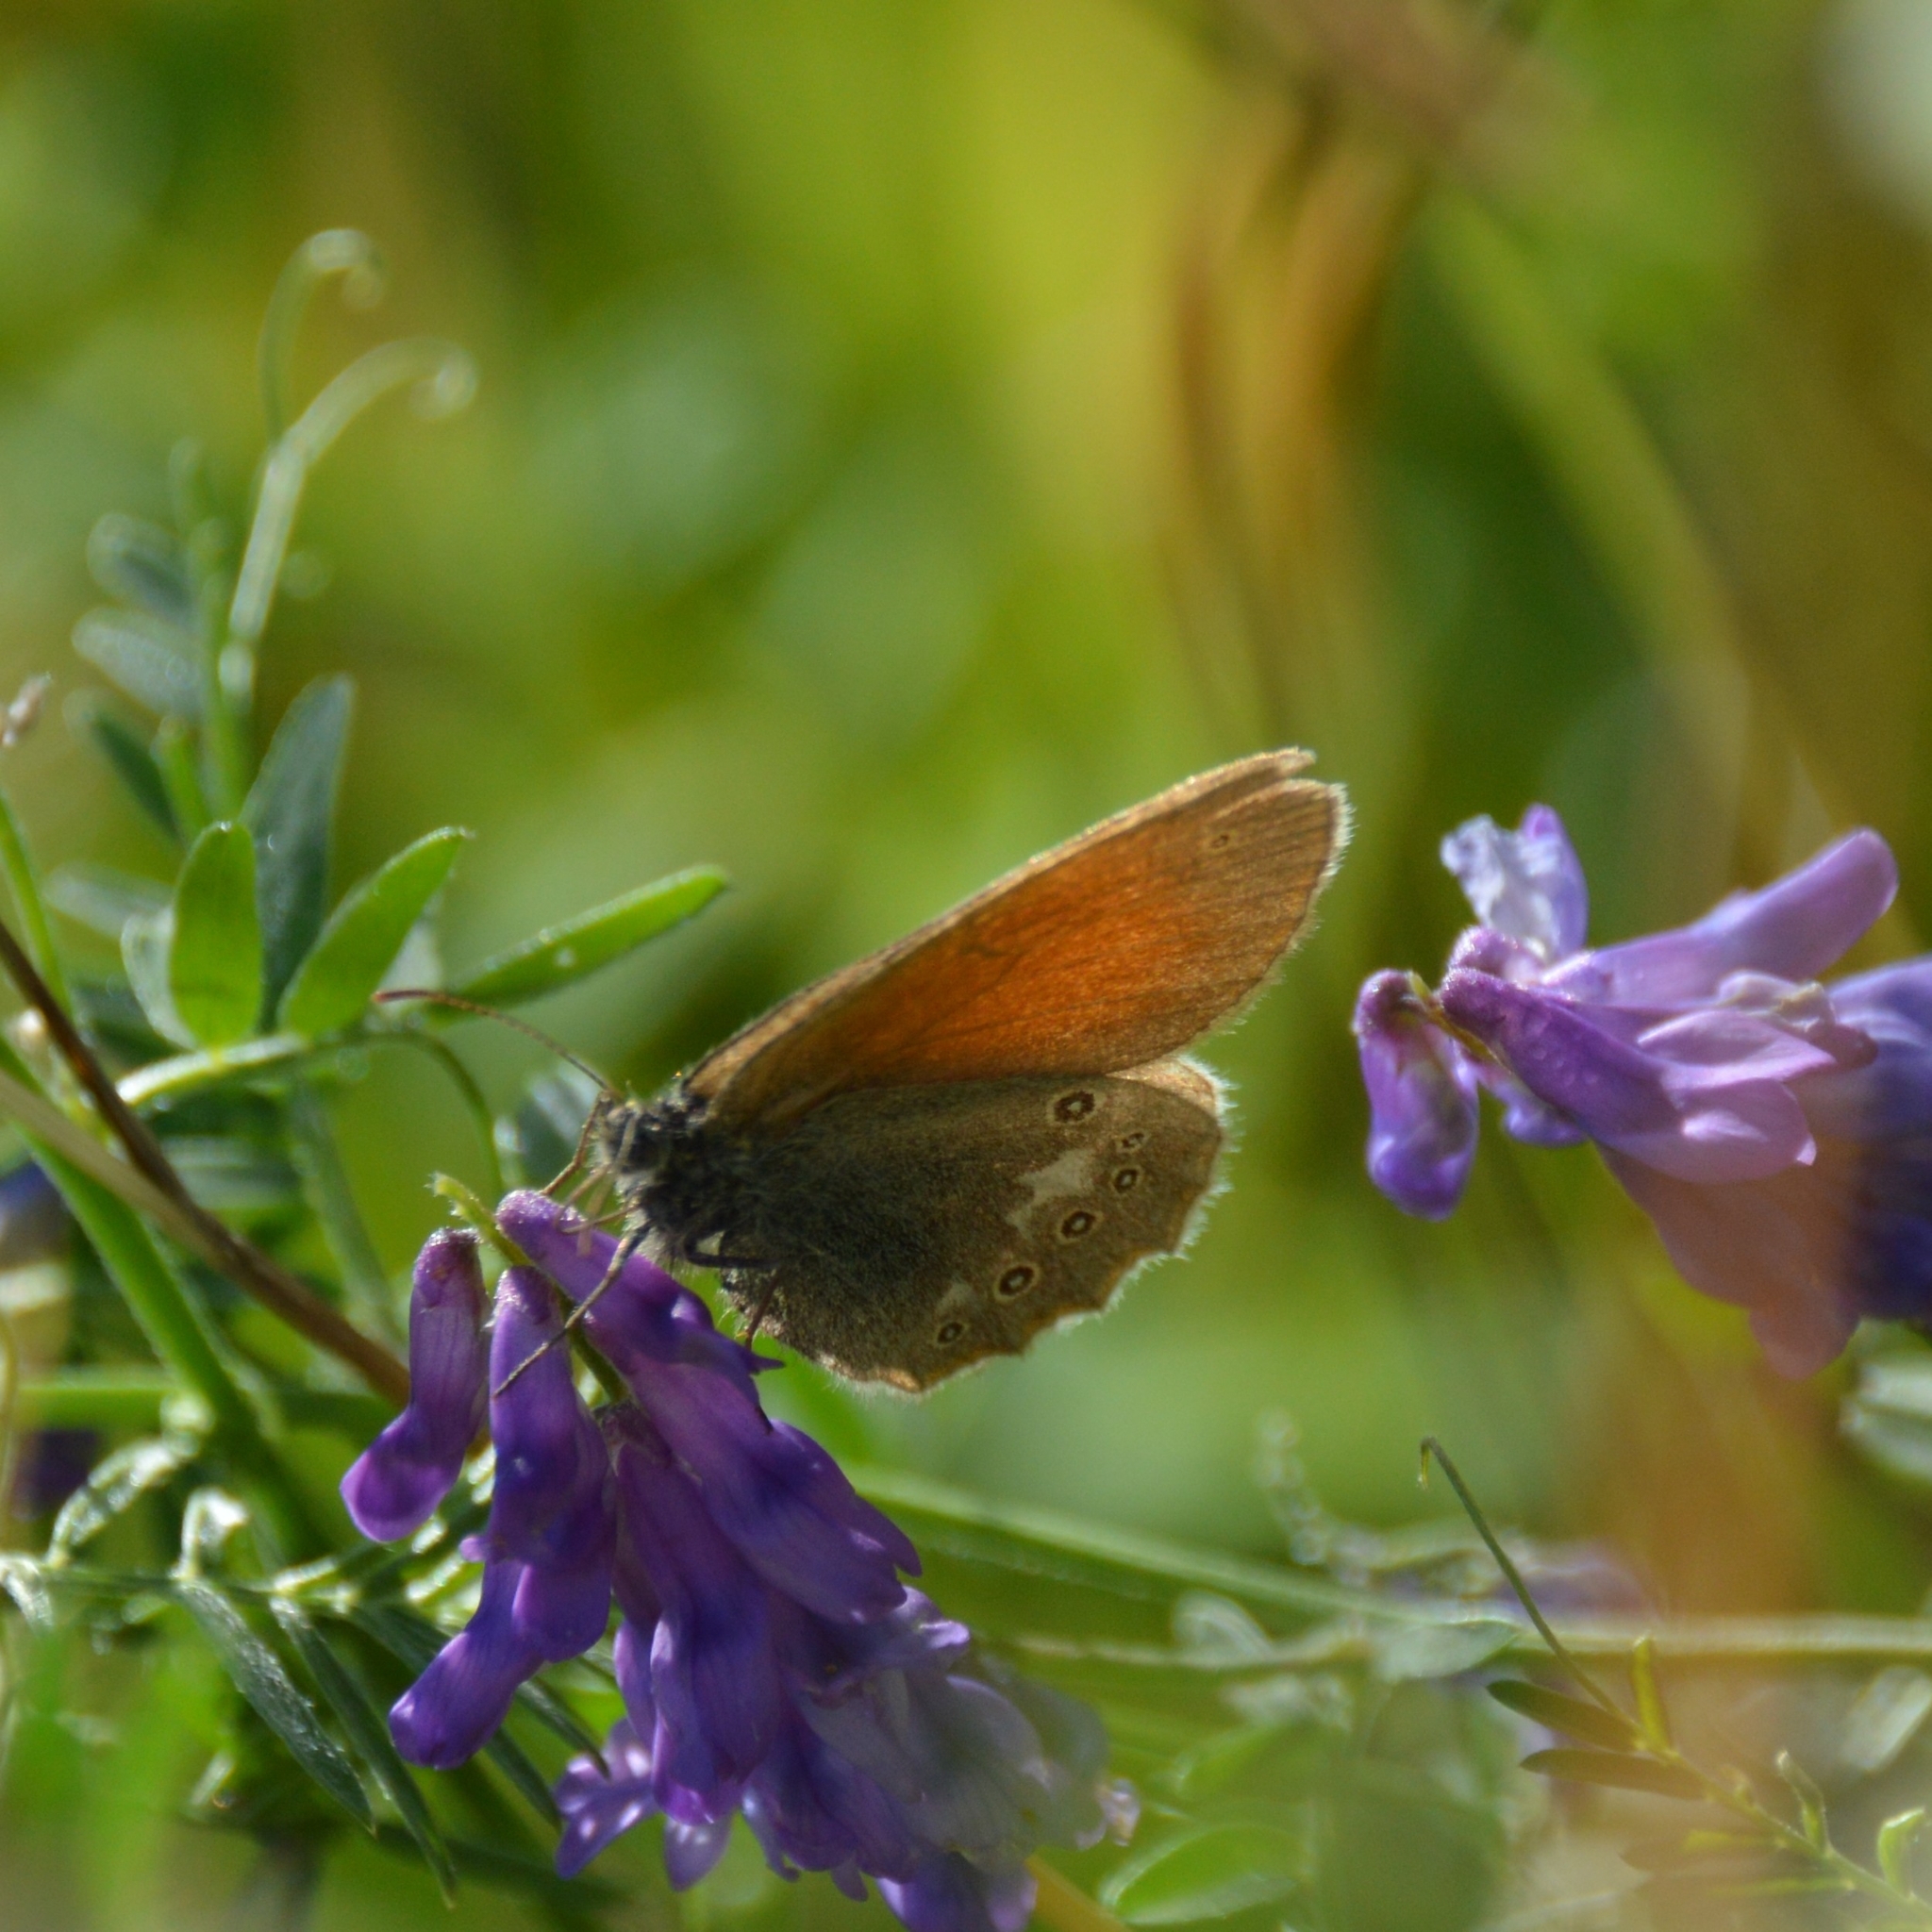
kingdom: Animalia
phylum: Arthropoda
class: Insecta
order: Lepidoptera
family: Nymphalidae
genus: Coenonympha
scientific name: Coenonympha iphis
